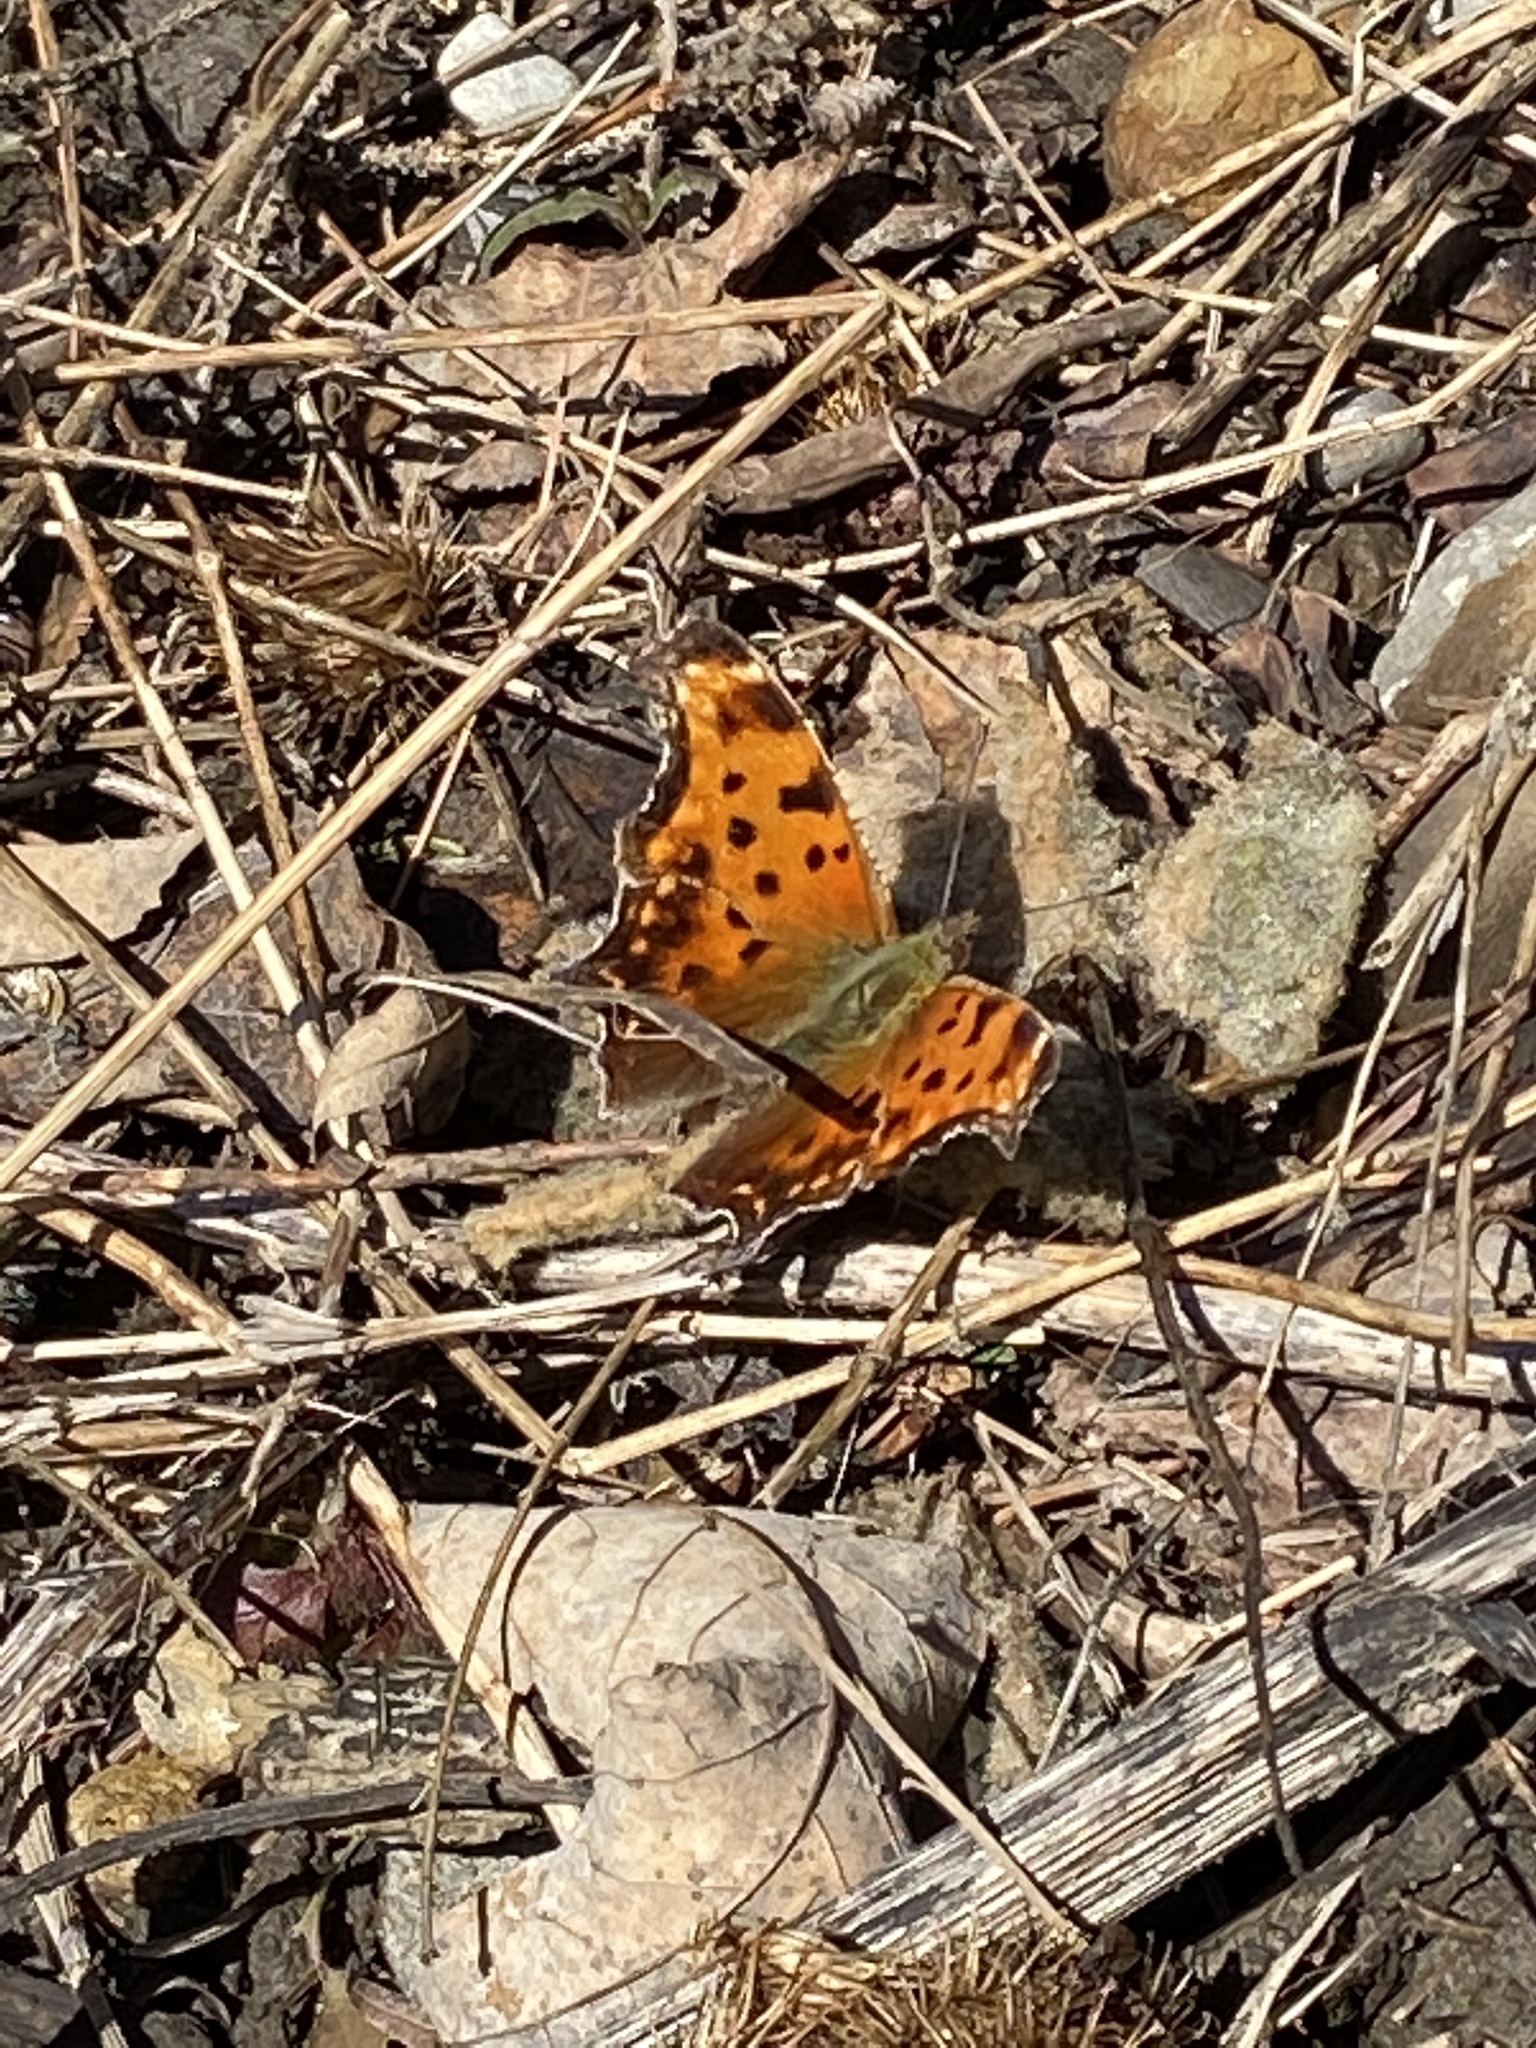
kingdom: Animalia
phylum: Arthropoda
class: Insecta
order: Lepidoptera
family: Nymphalidae
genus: Polygonia
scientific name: Polygonia comma
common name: Eastern comma
